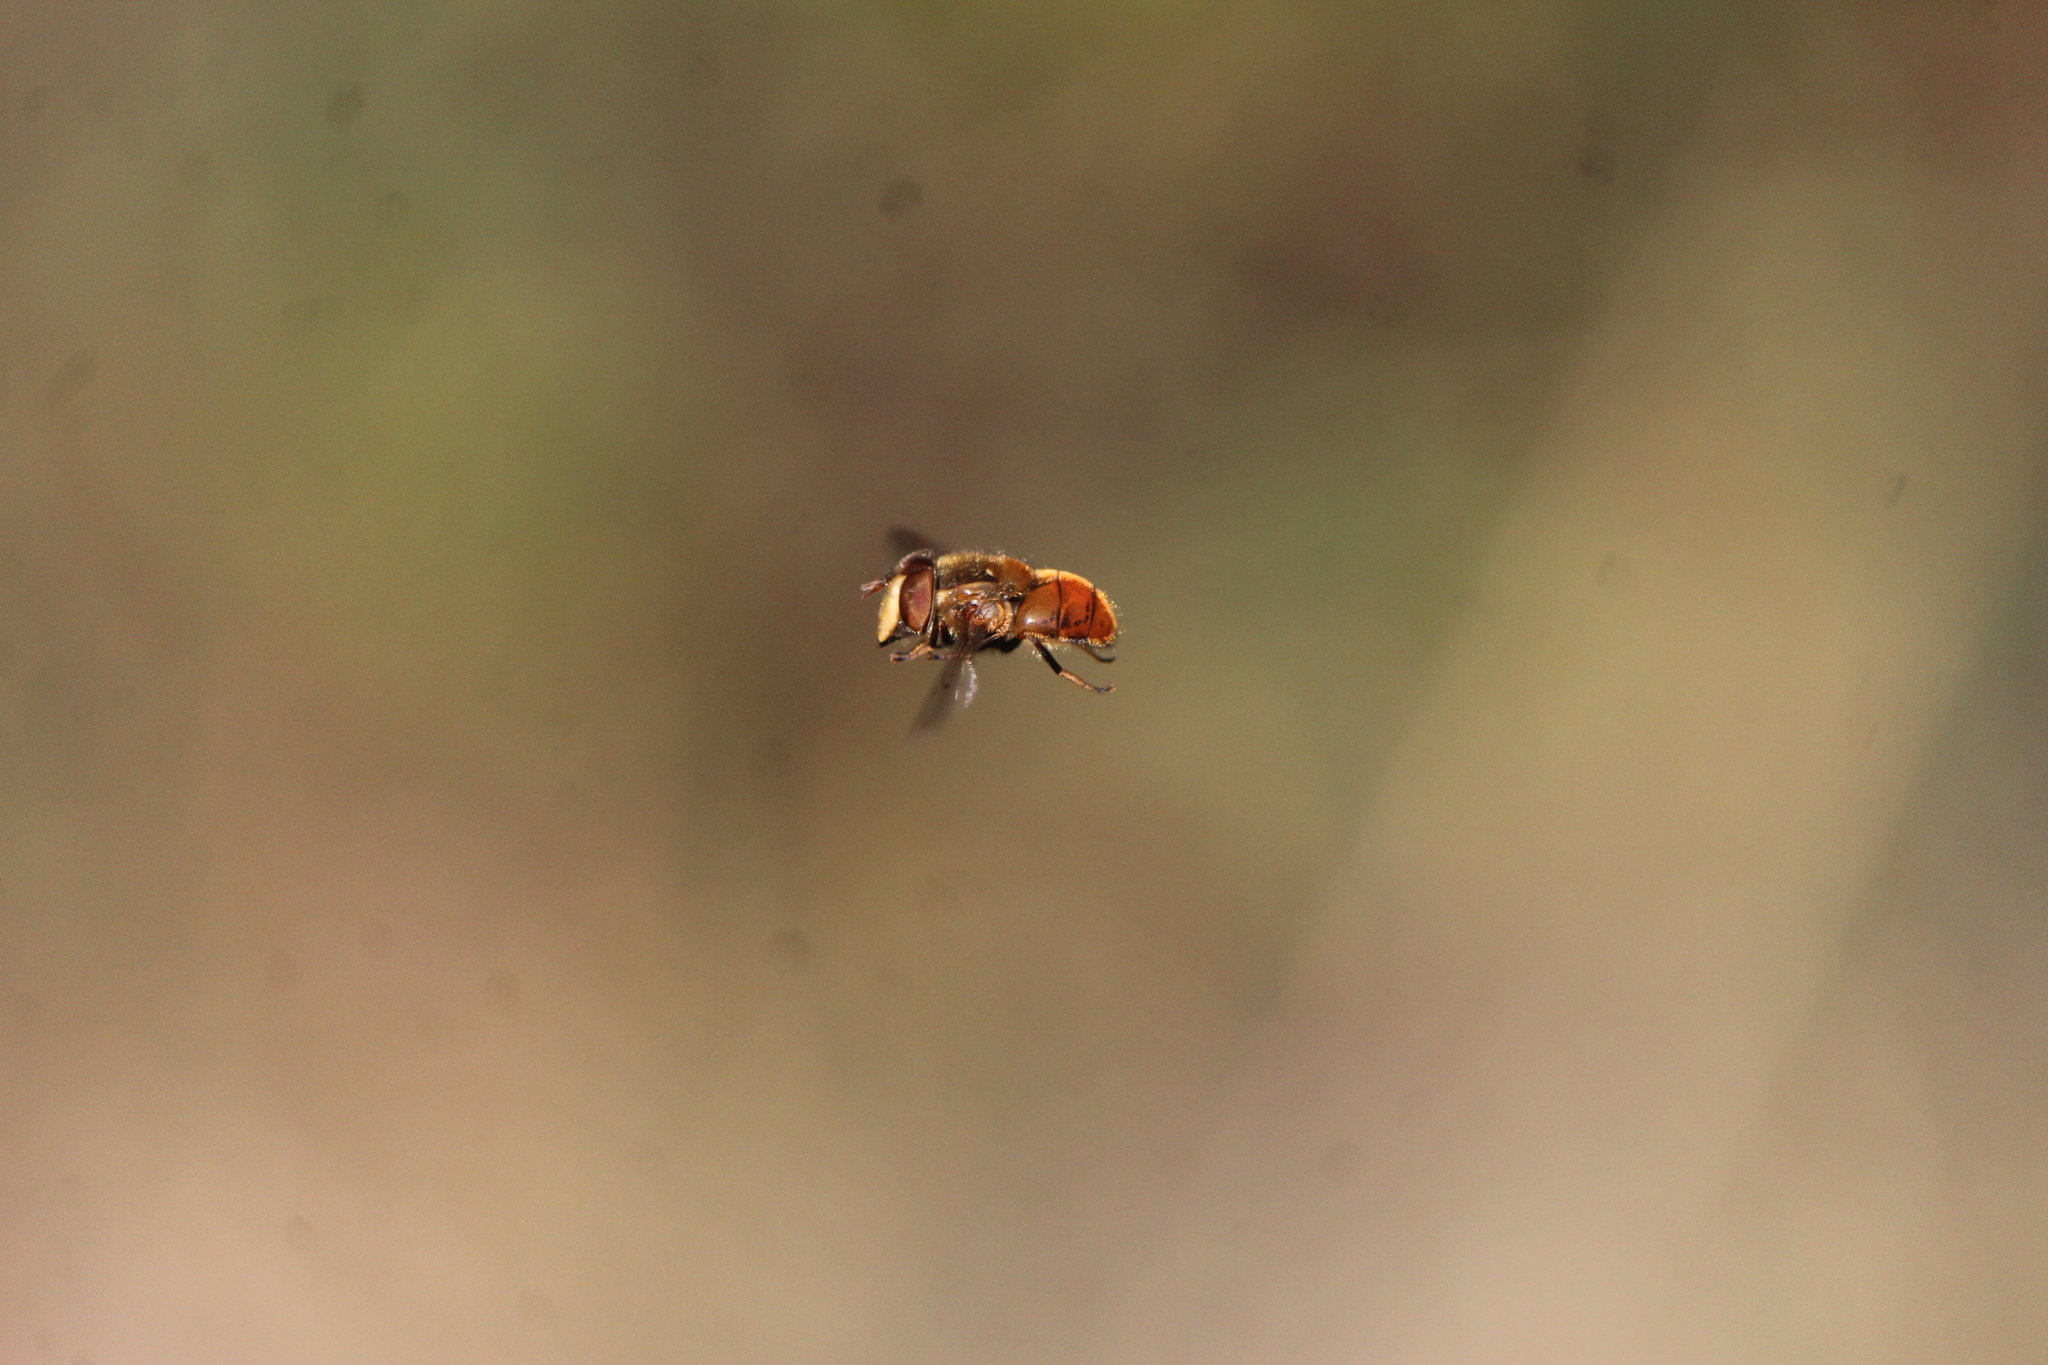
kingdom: Animalia
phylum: Arthropoda
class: Insecta
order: Diptera
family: Syrphidae
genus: Copestylum
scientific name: Copestylum melleum
